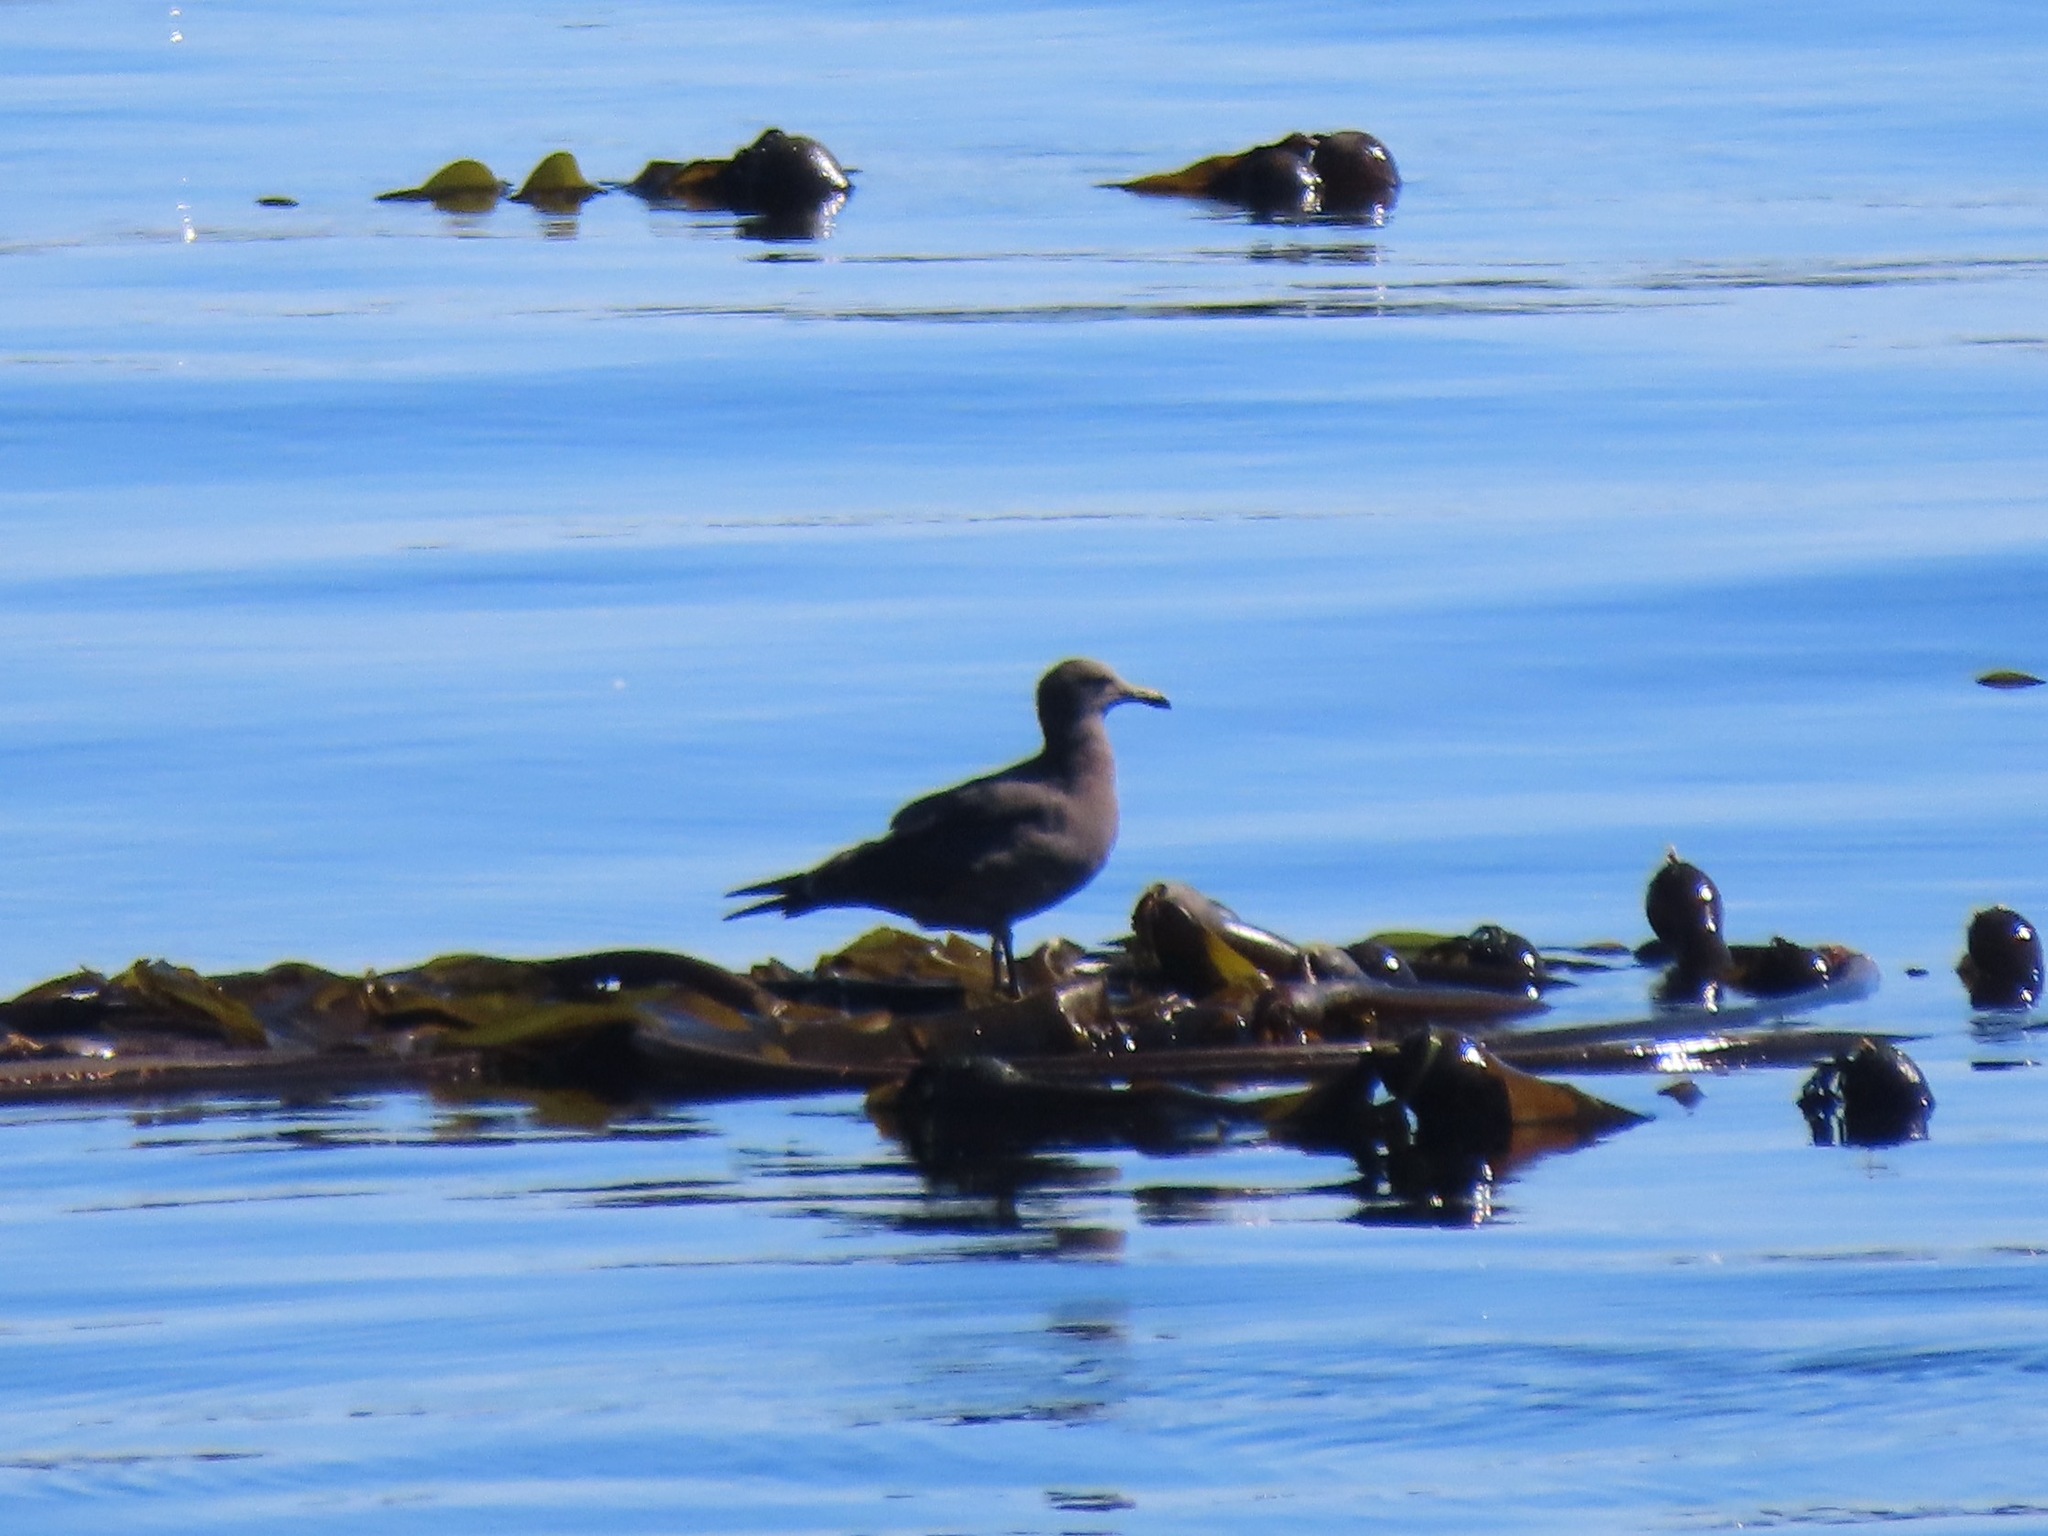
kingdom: Animalia
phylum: Chordata
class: Aves
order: Charadriiformes
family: Laridae
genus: Larus
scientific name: Larus heermanni
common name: Heermann's gull
